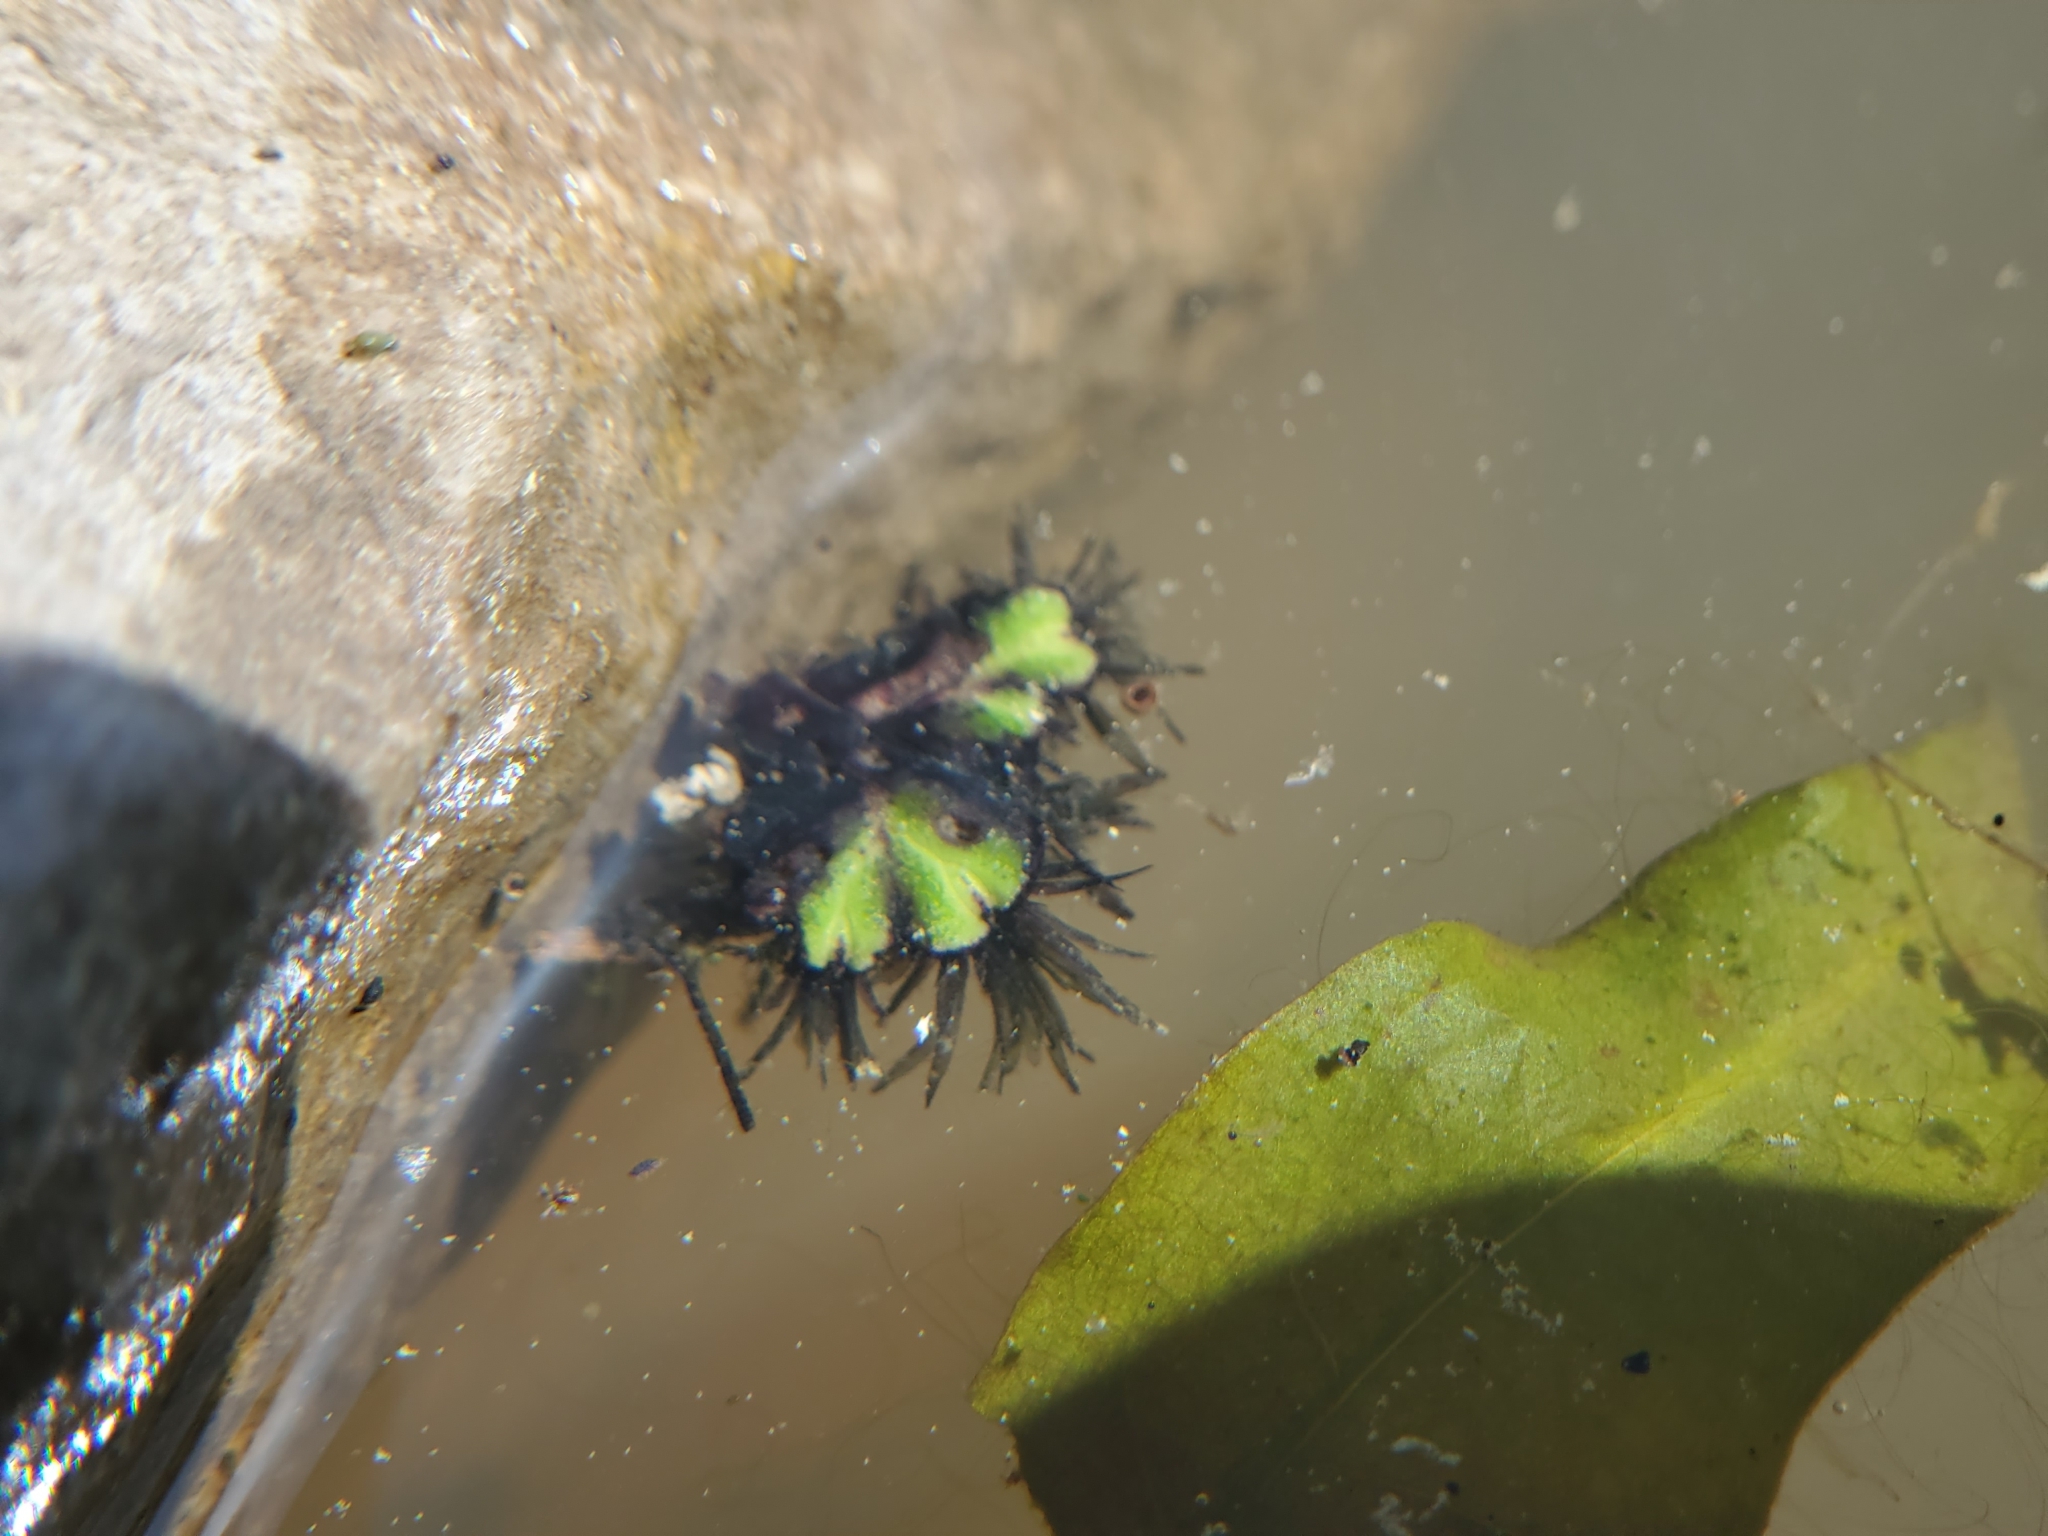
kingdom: Plantae
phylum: Marchantiophyta
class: Marchantiopsida
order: Marchantiales
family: Ricciaceae
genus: Ricciocarpos
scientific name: Ricciocarpos natans
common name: Purple-fringed liverwort
